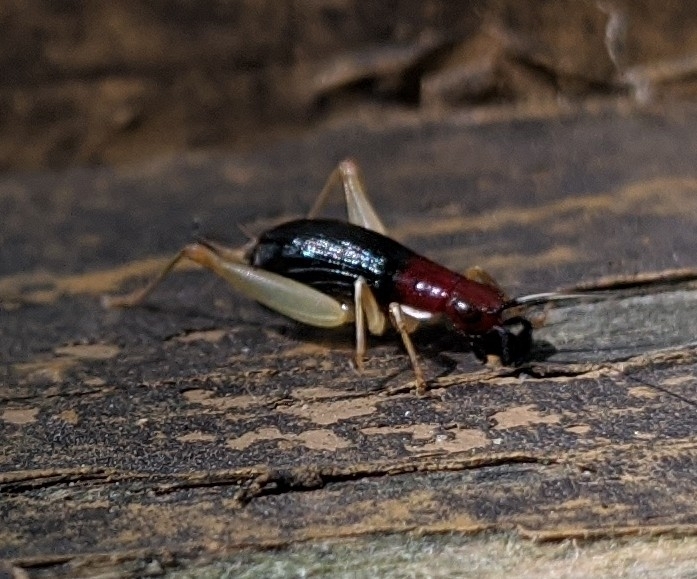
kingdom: Animalia
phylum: Arthropoda
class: Insecta
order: Orthoptera
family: Trigonidiidae
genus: Phyllopalpus
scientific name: Phyllopalpus pulchellus
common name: Handsome trig
